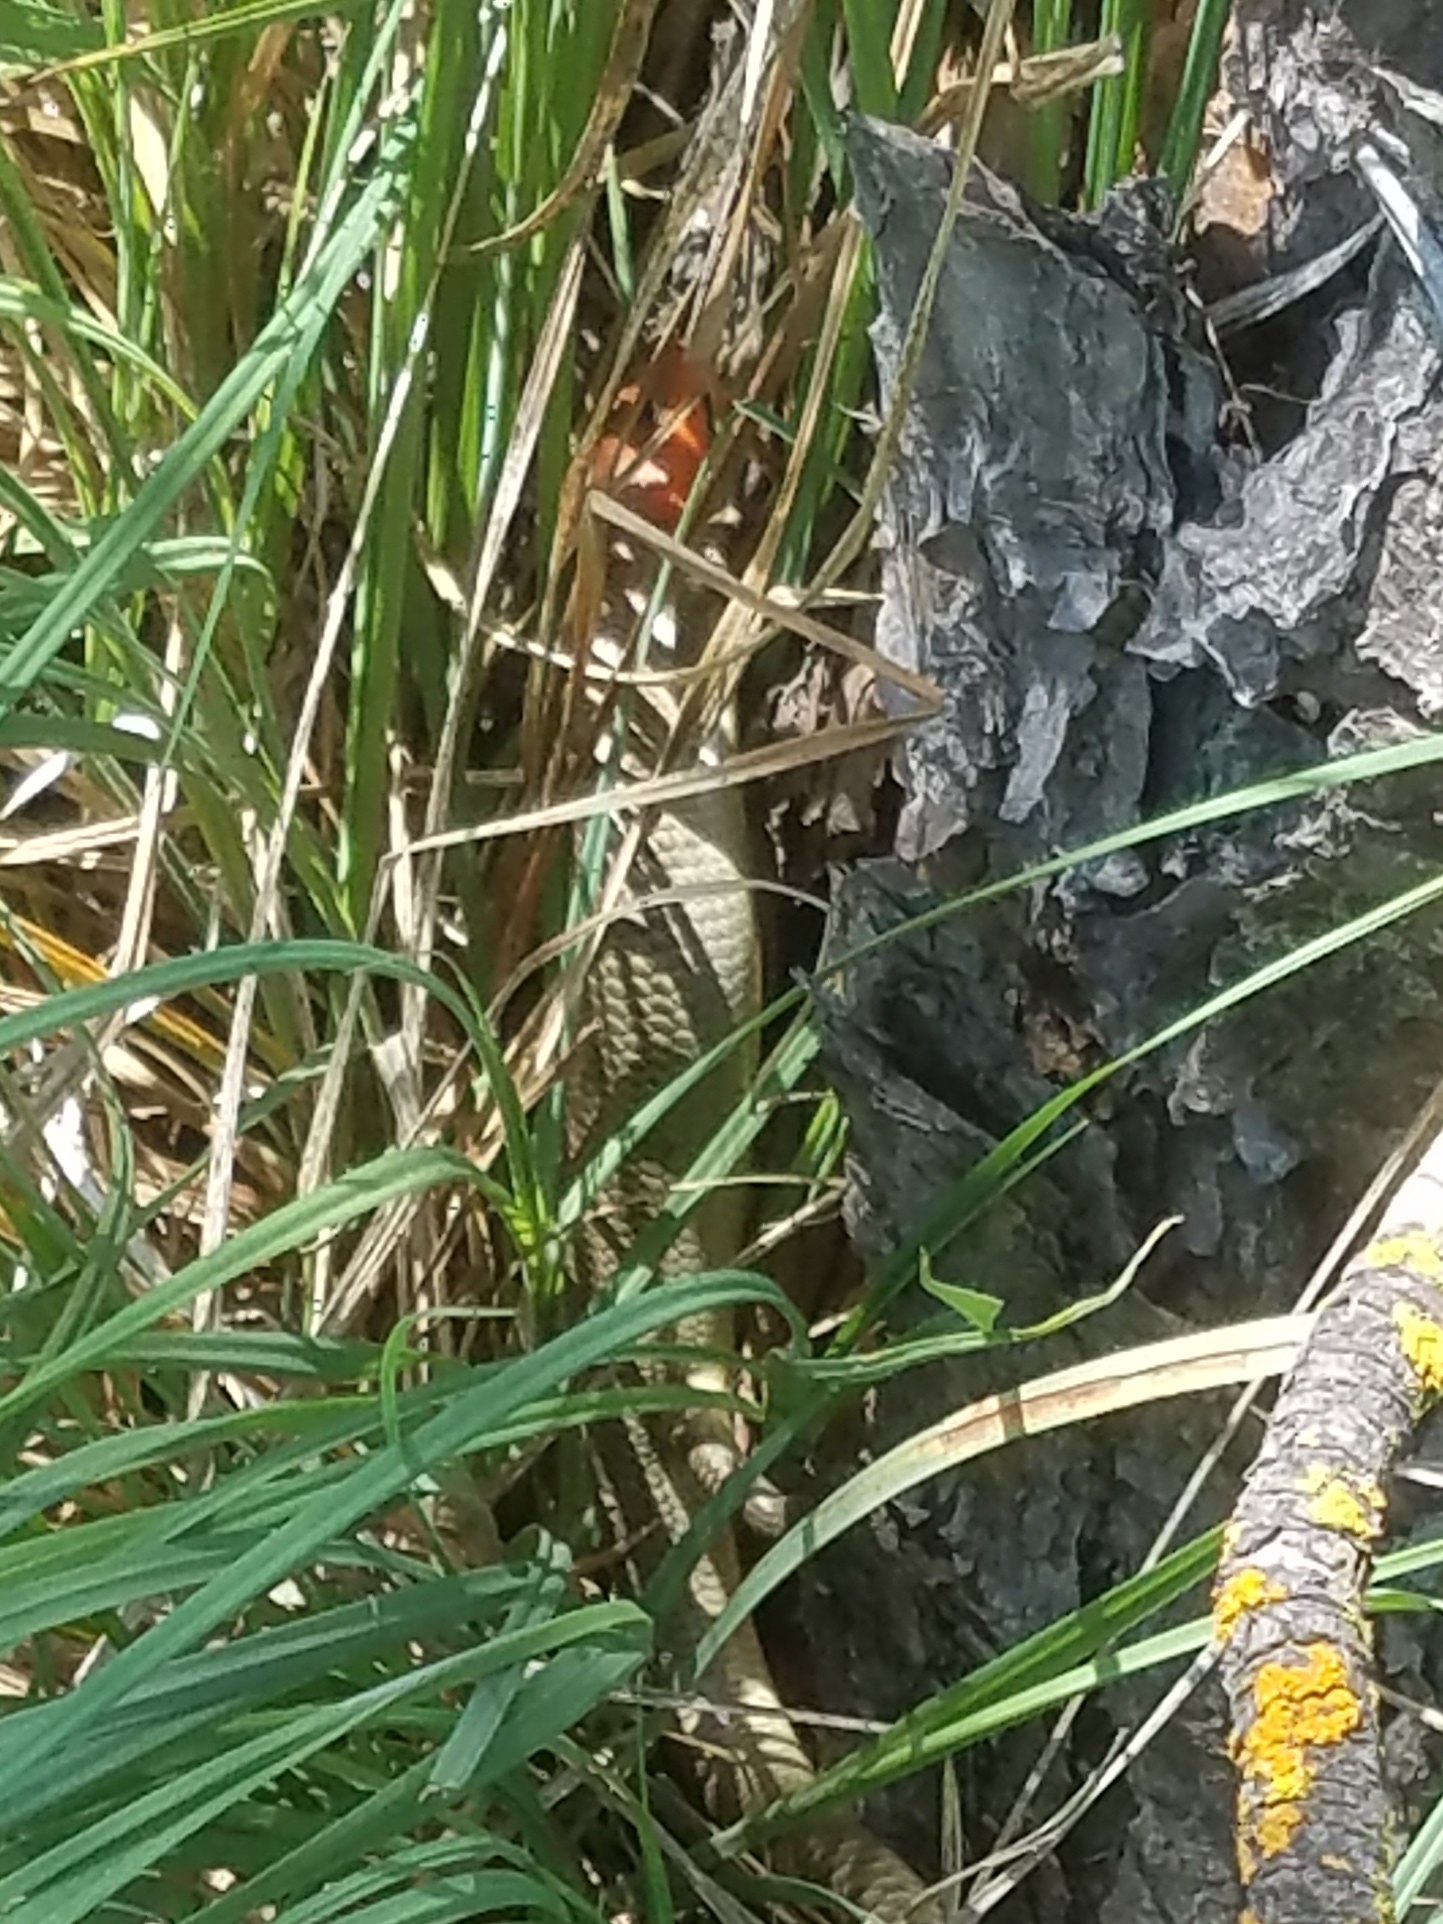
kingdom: Animalia
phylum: Chordata
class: Squamata
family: Scincidae
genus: Plestiodon
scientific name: Plestiodon gilberti
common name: Gilbert's skink
